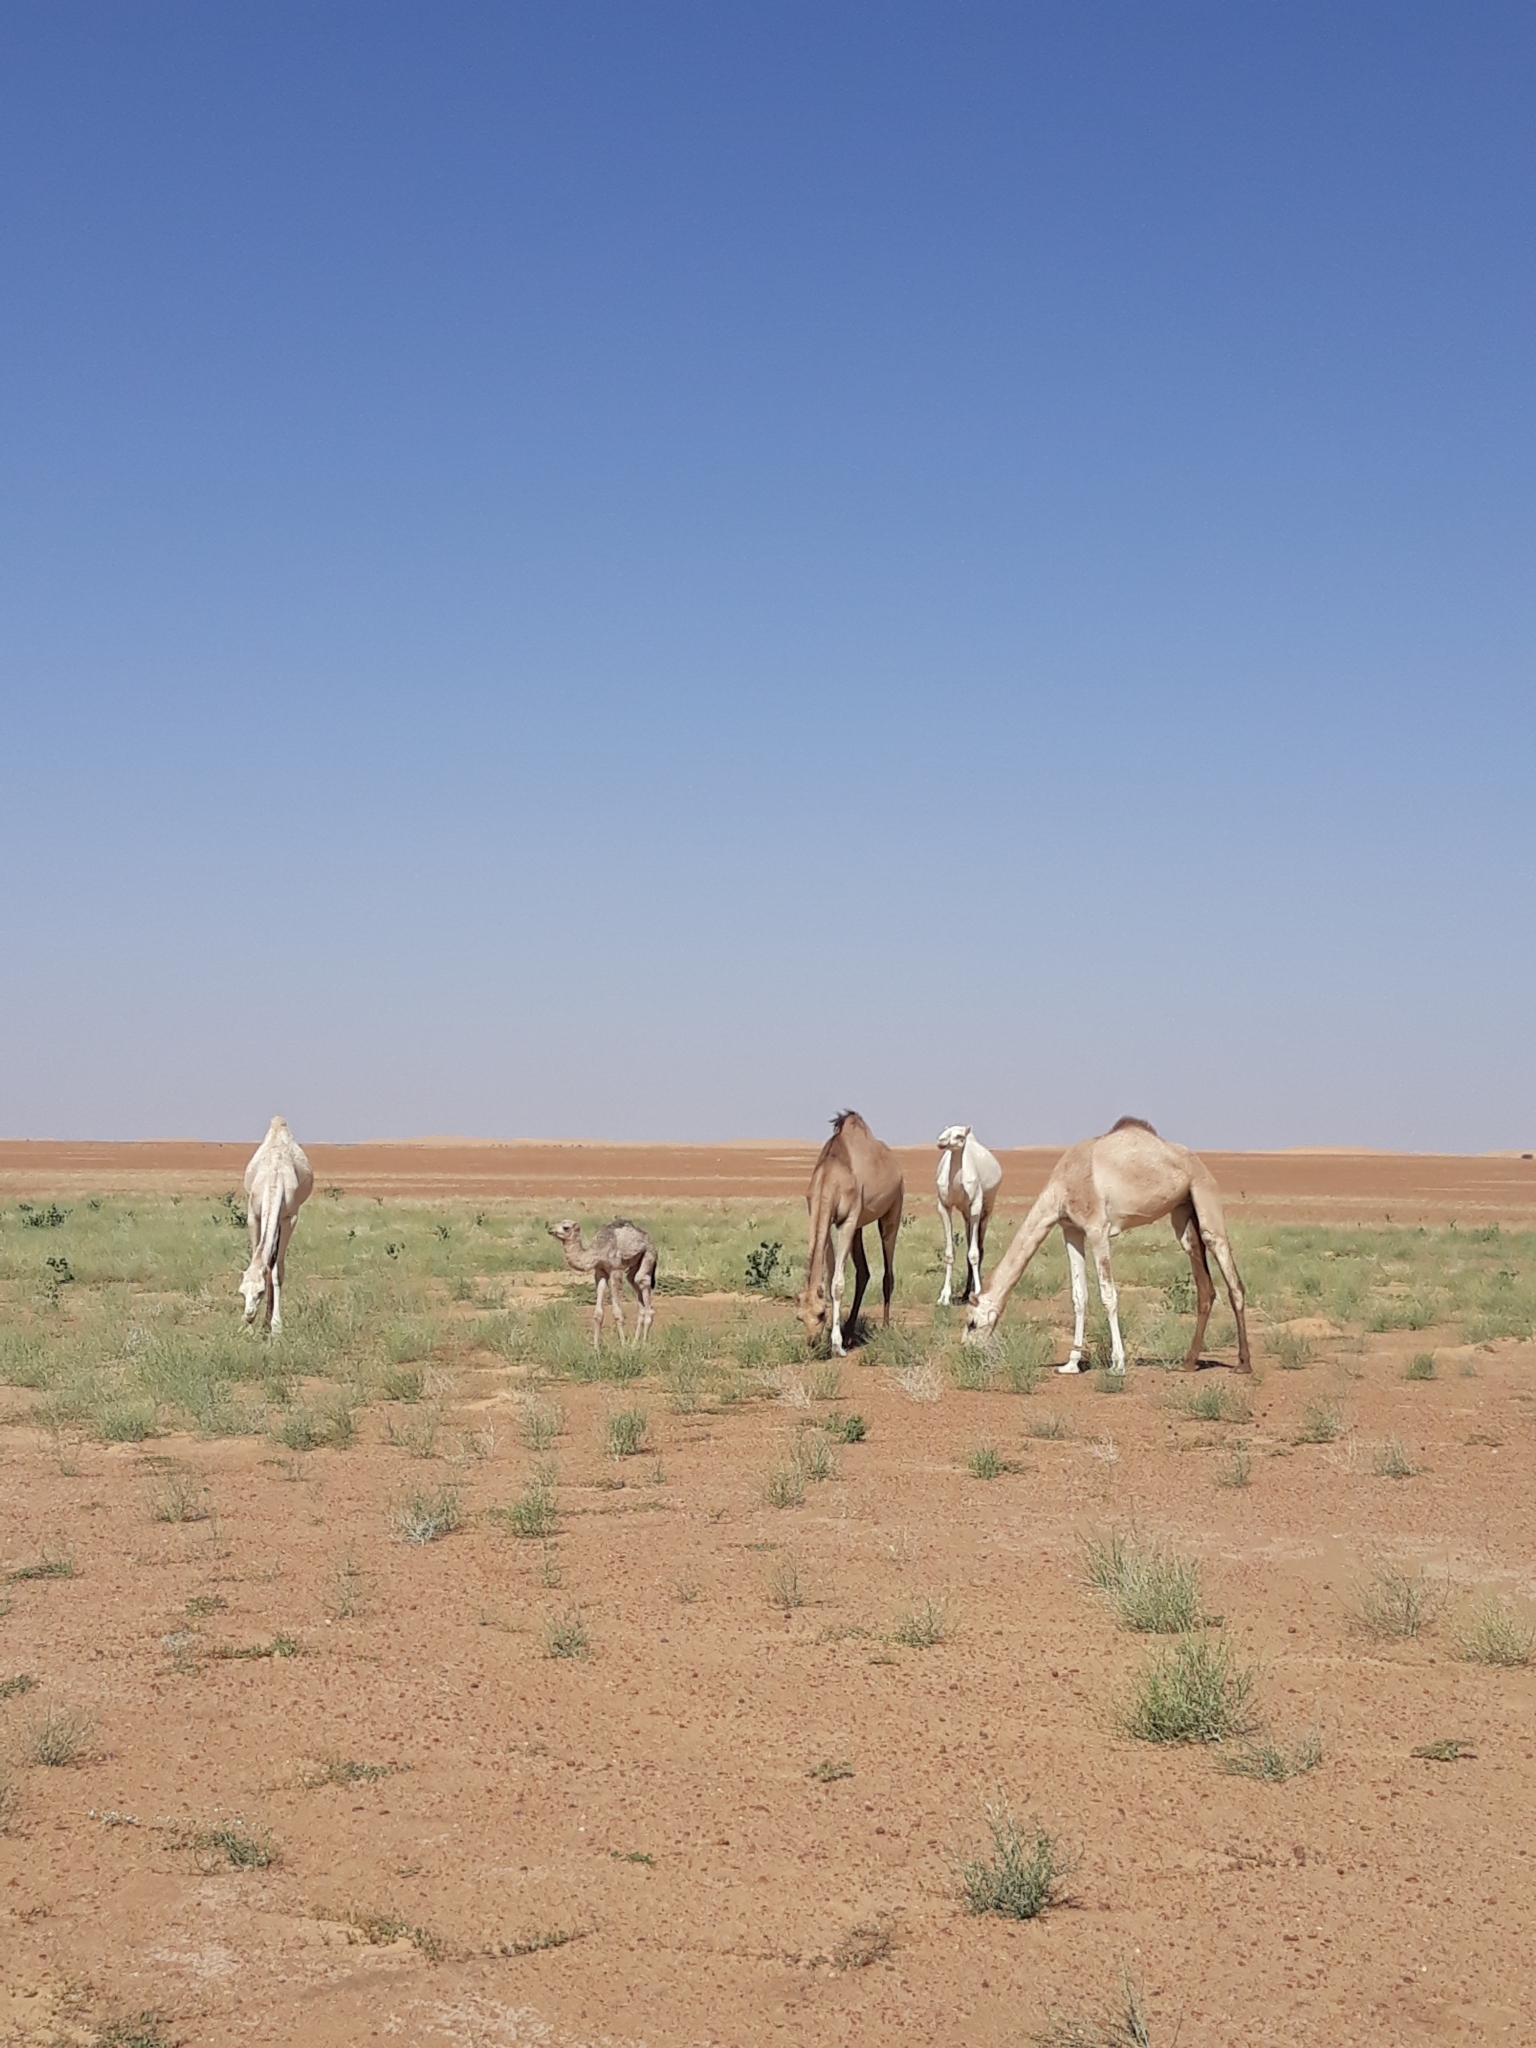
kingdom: Animalia
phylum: Chordata
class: Mammalia
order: Artiodactyla
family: Camelidae
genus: Camelus
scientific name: Camelus dromedarius
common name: One-humped camel
